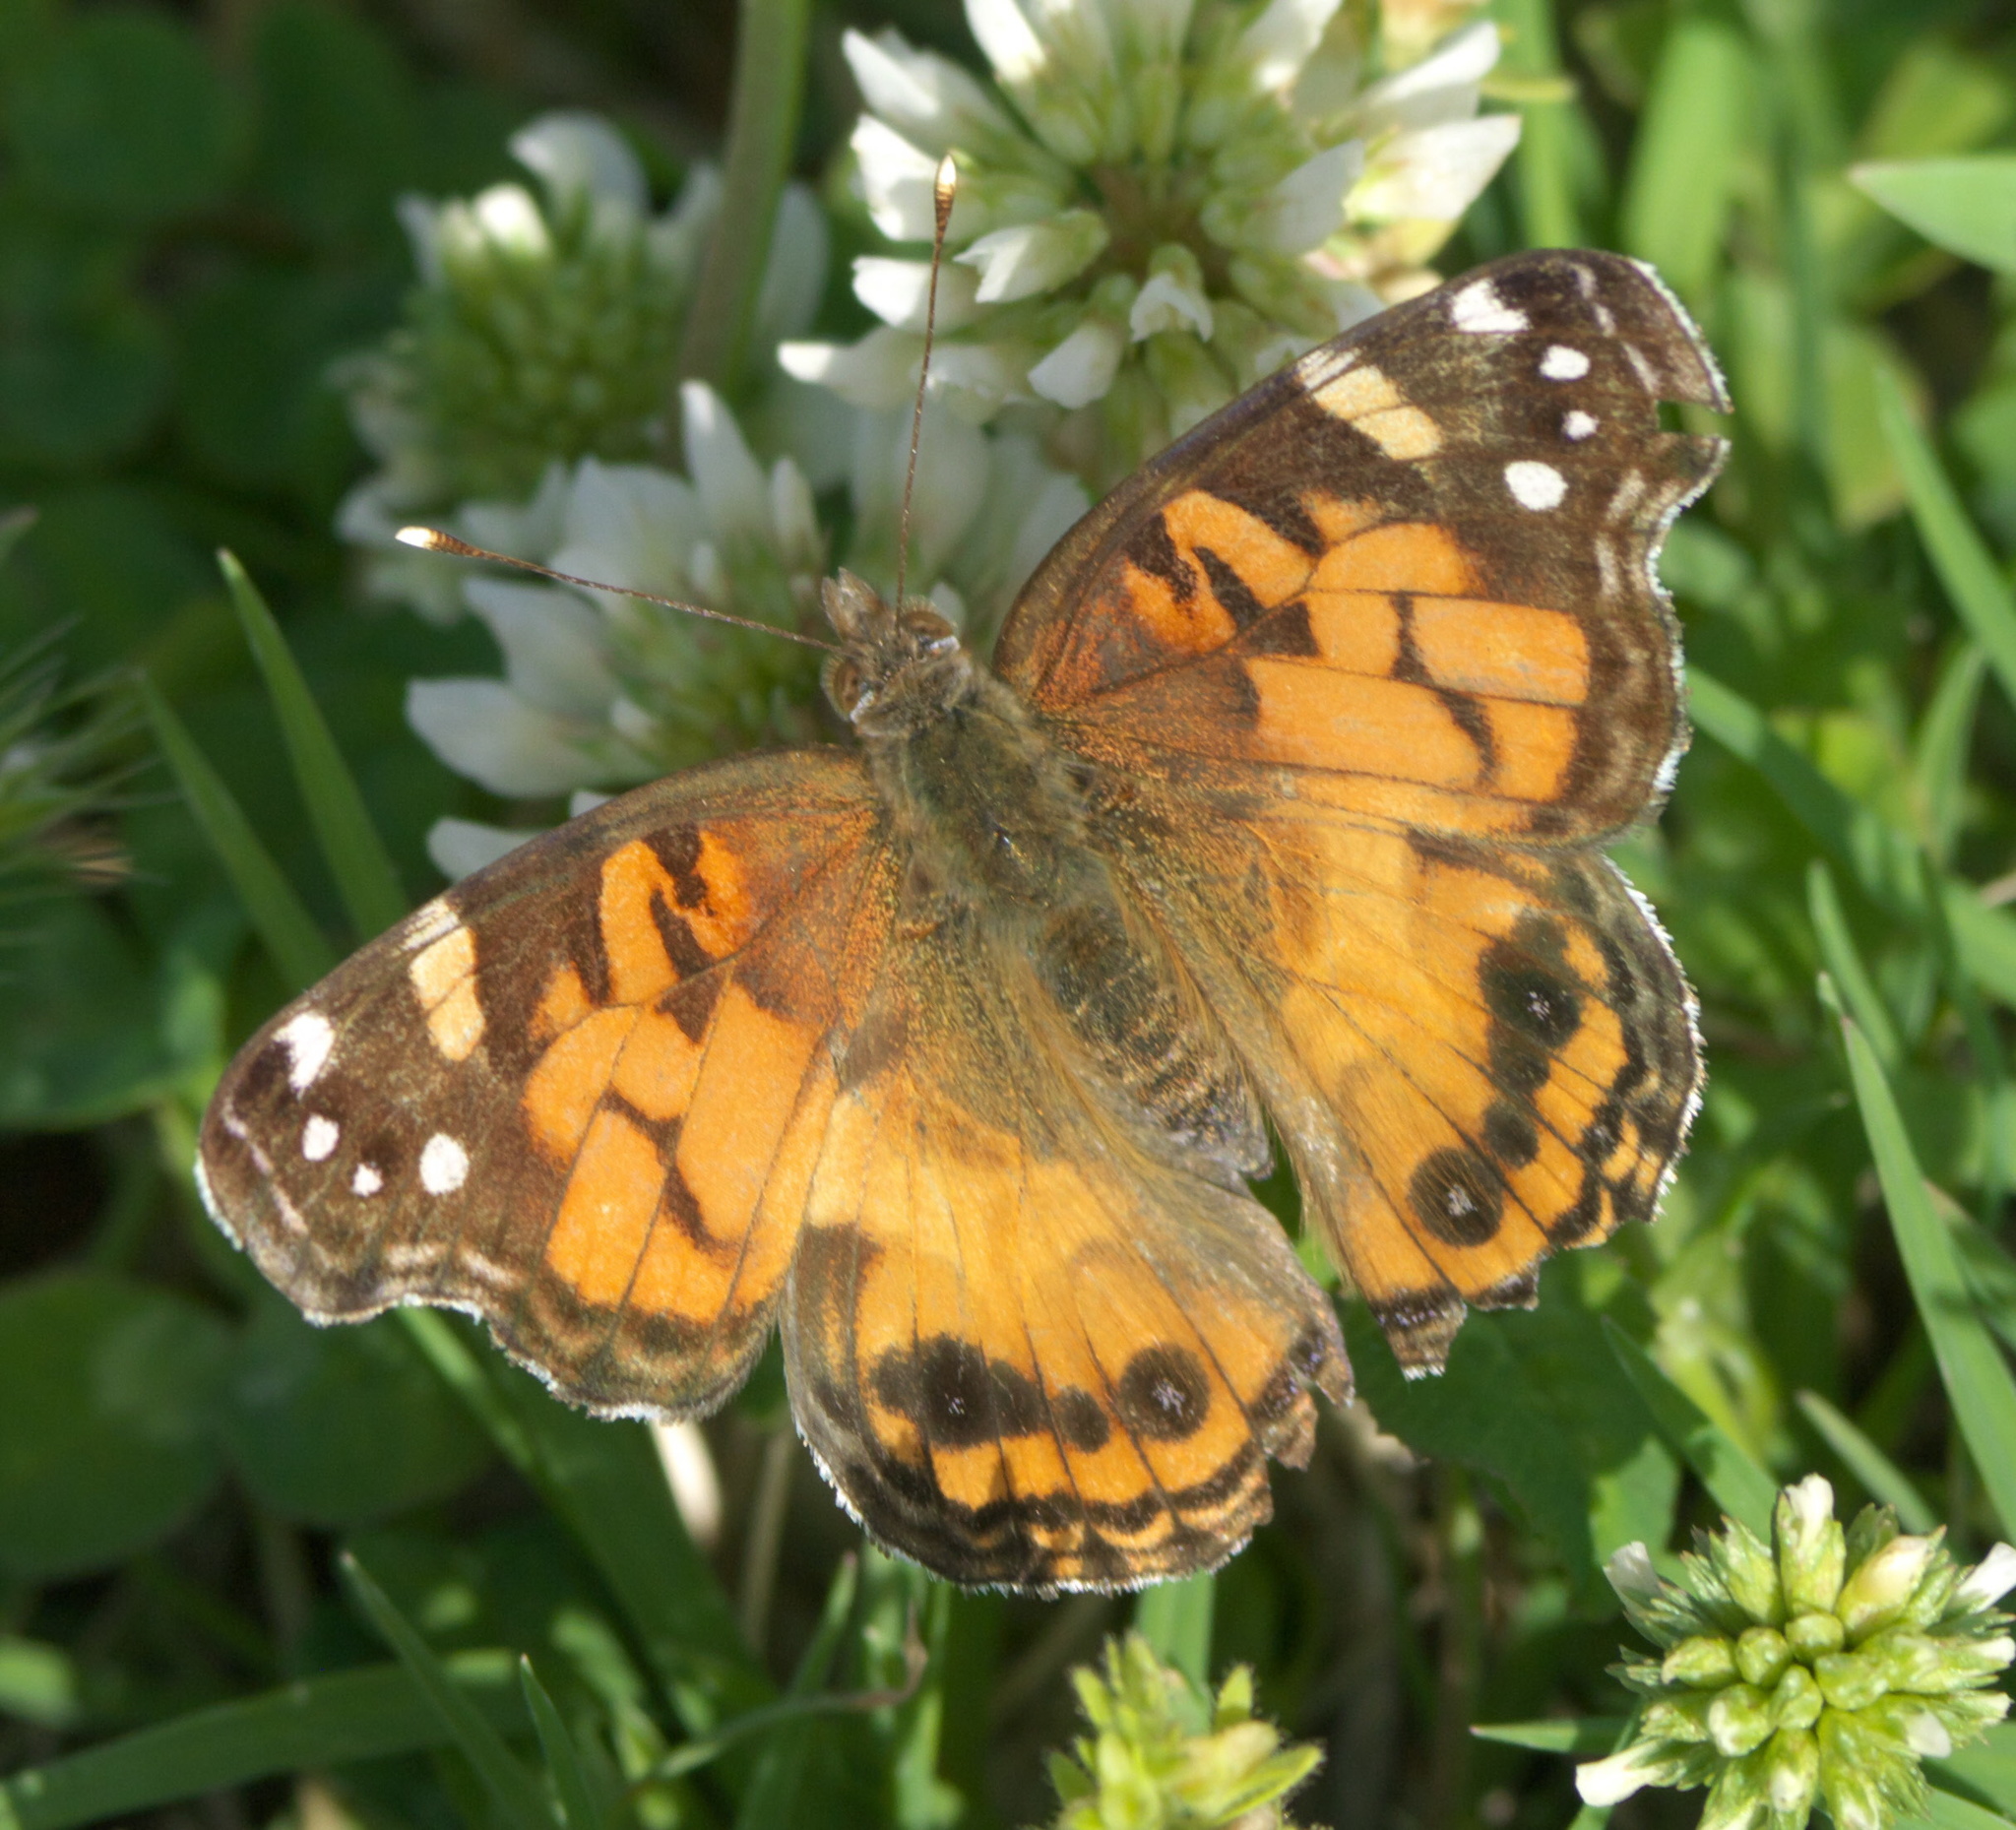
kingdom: Animalia
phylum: Arthropoda
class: Insecta
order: Lepidoptera
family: Nymphalidae
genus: Vanessa
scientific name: Vanessa virginiensis
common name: American lady
